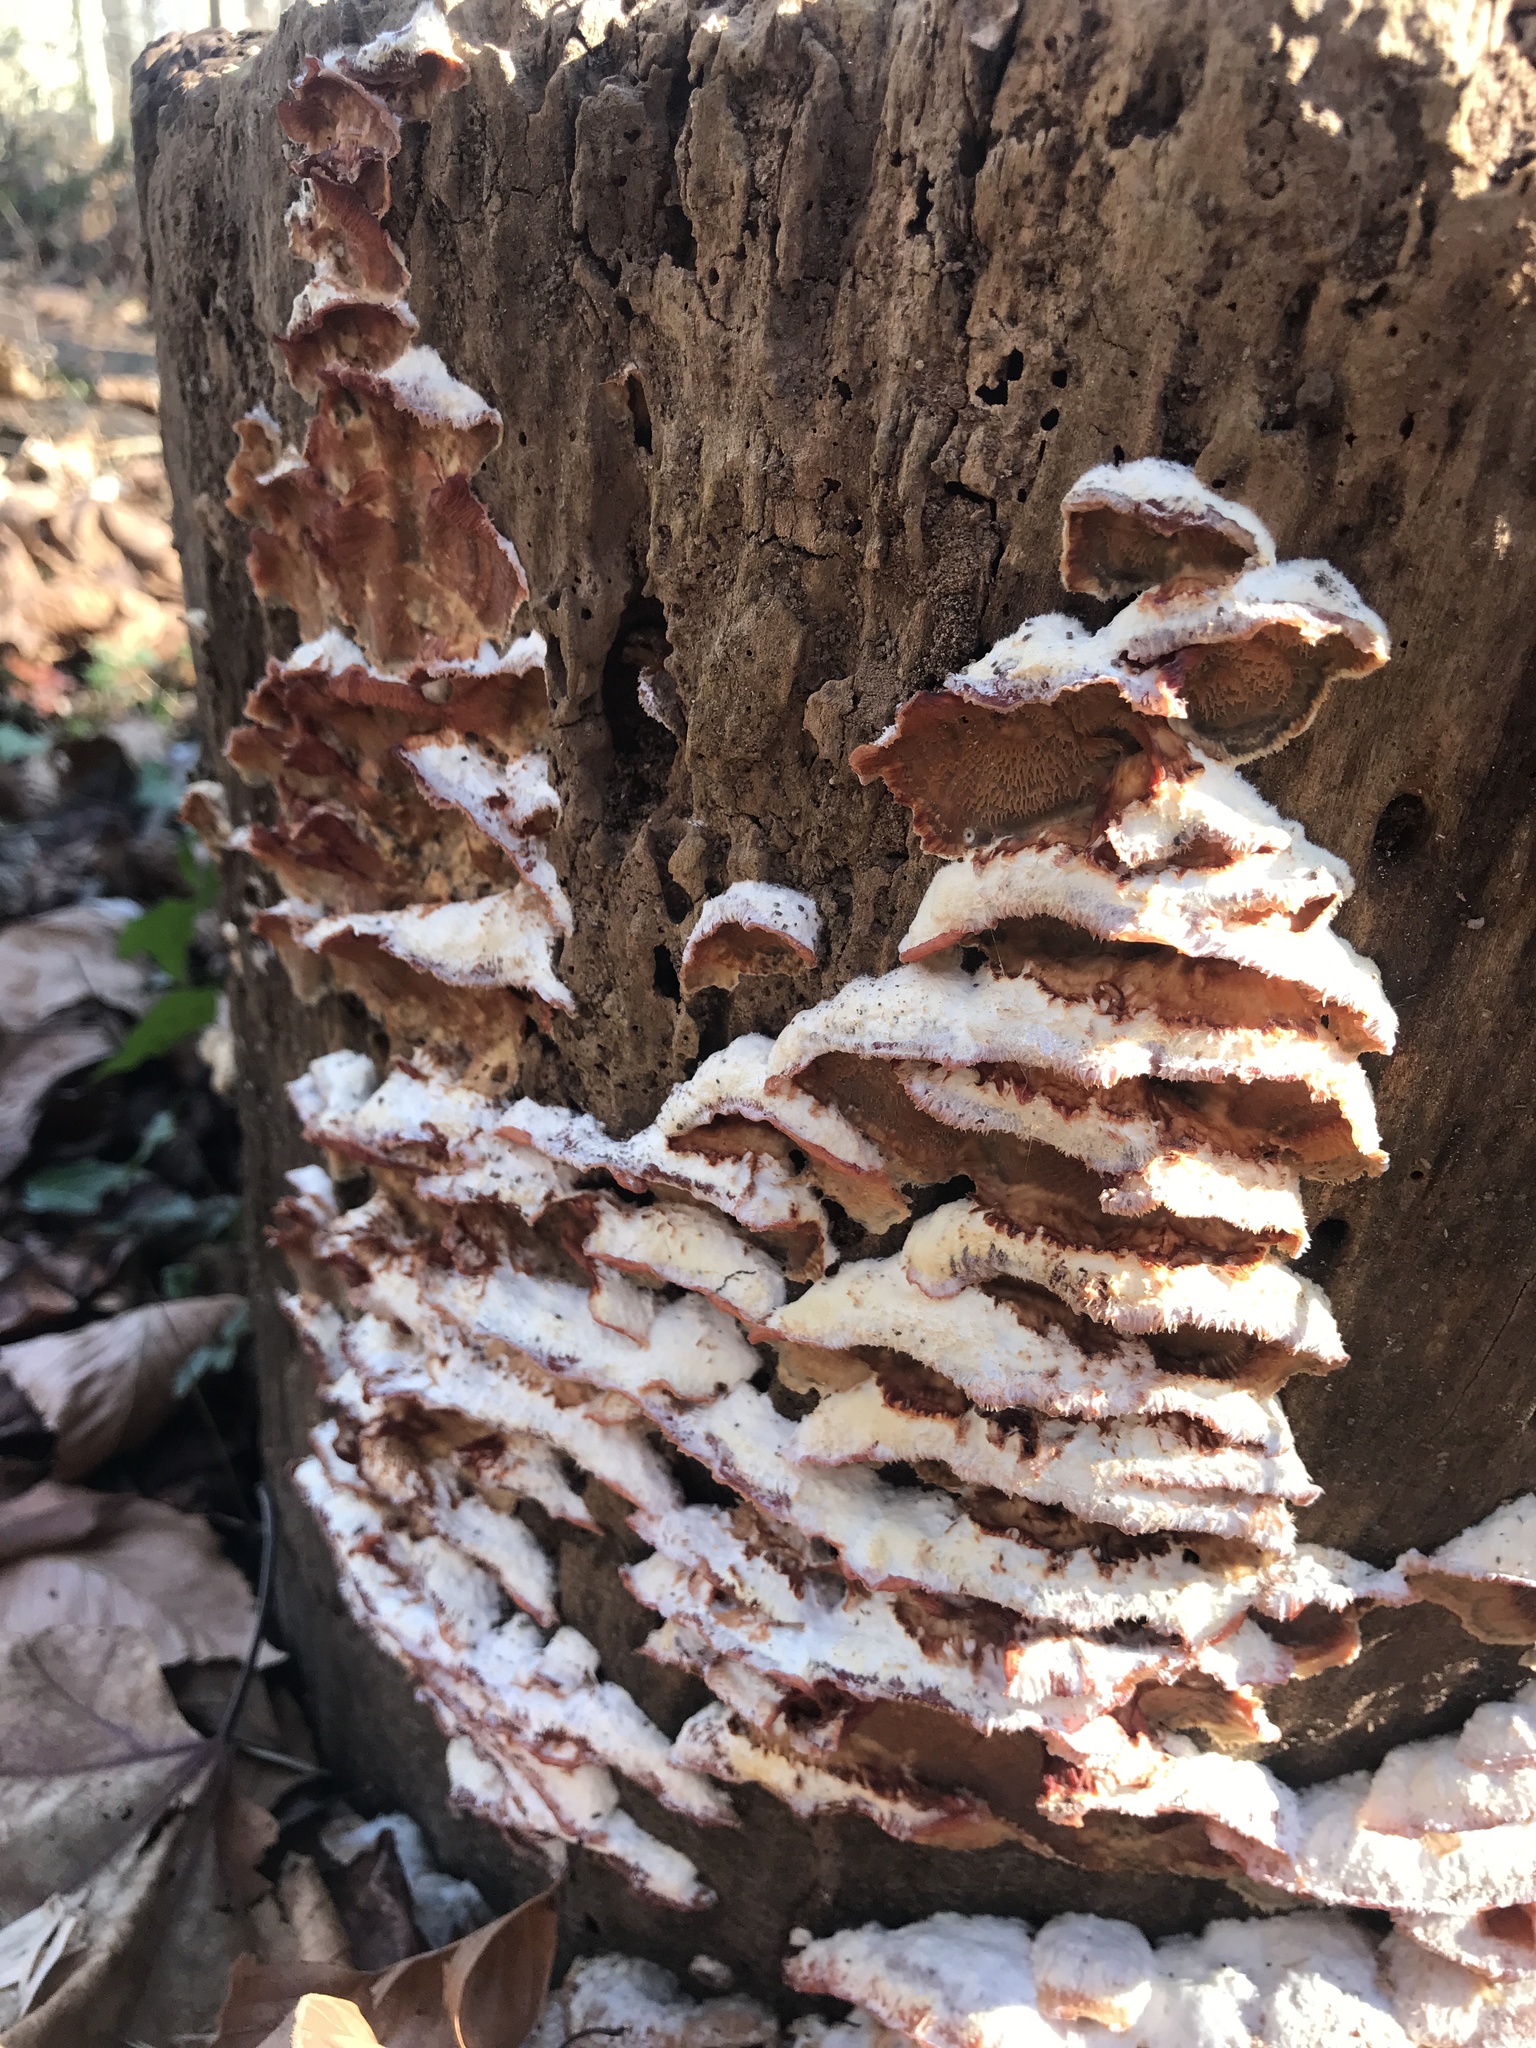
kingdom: Fungi
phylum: Basidiomycota
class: Agaricomycetes
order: Polyporales
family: Meruliaceae
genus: Phlebia
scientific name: Phlebia tremellosa
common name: Jelly rot
